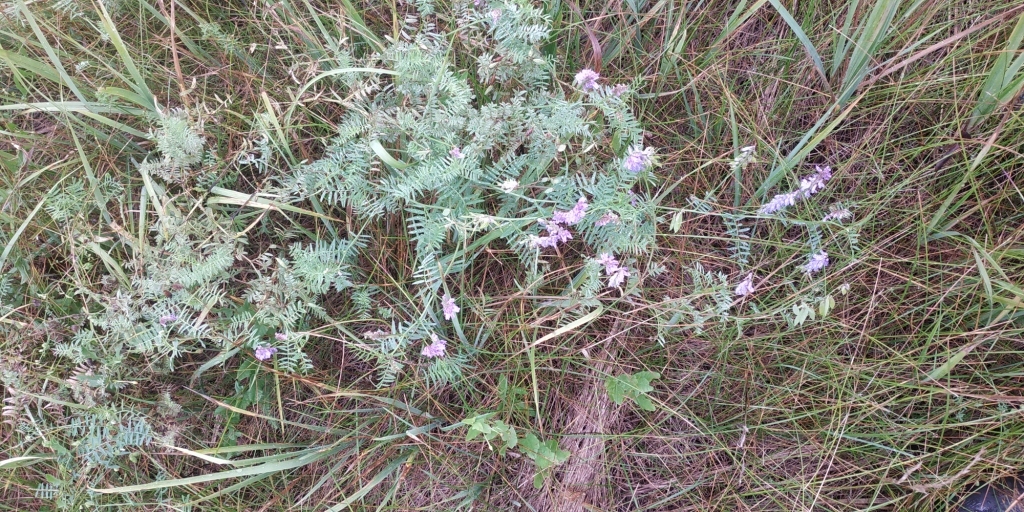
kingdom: Plantae
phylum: Tracheophyta
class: Magnoliopsida
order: Fabales
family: Fabaceae
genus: Vicia
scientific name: Vicia cracca
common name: Bird vetch
